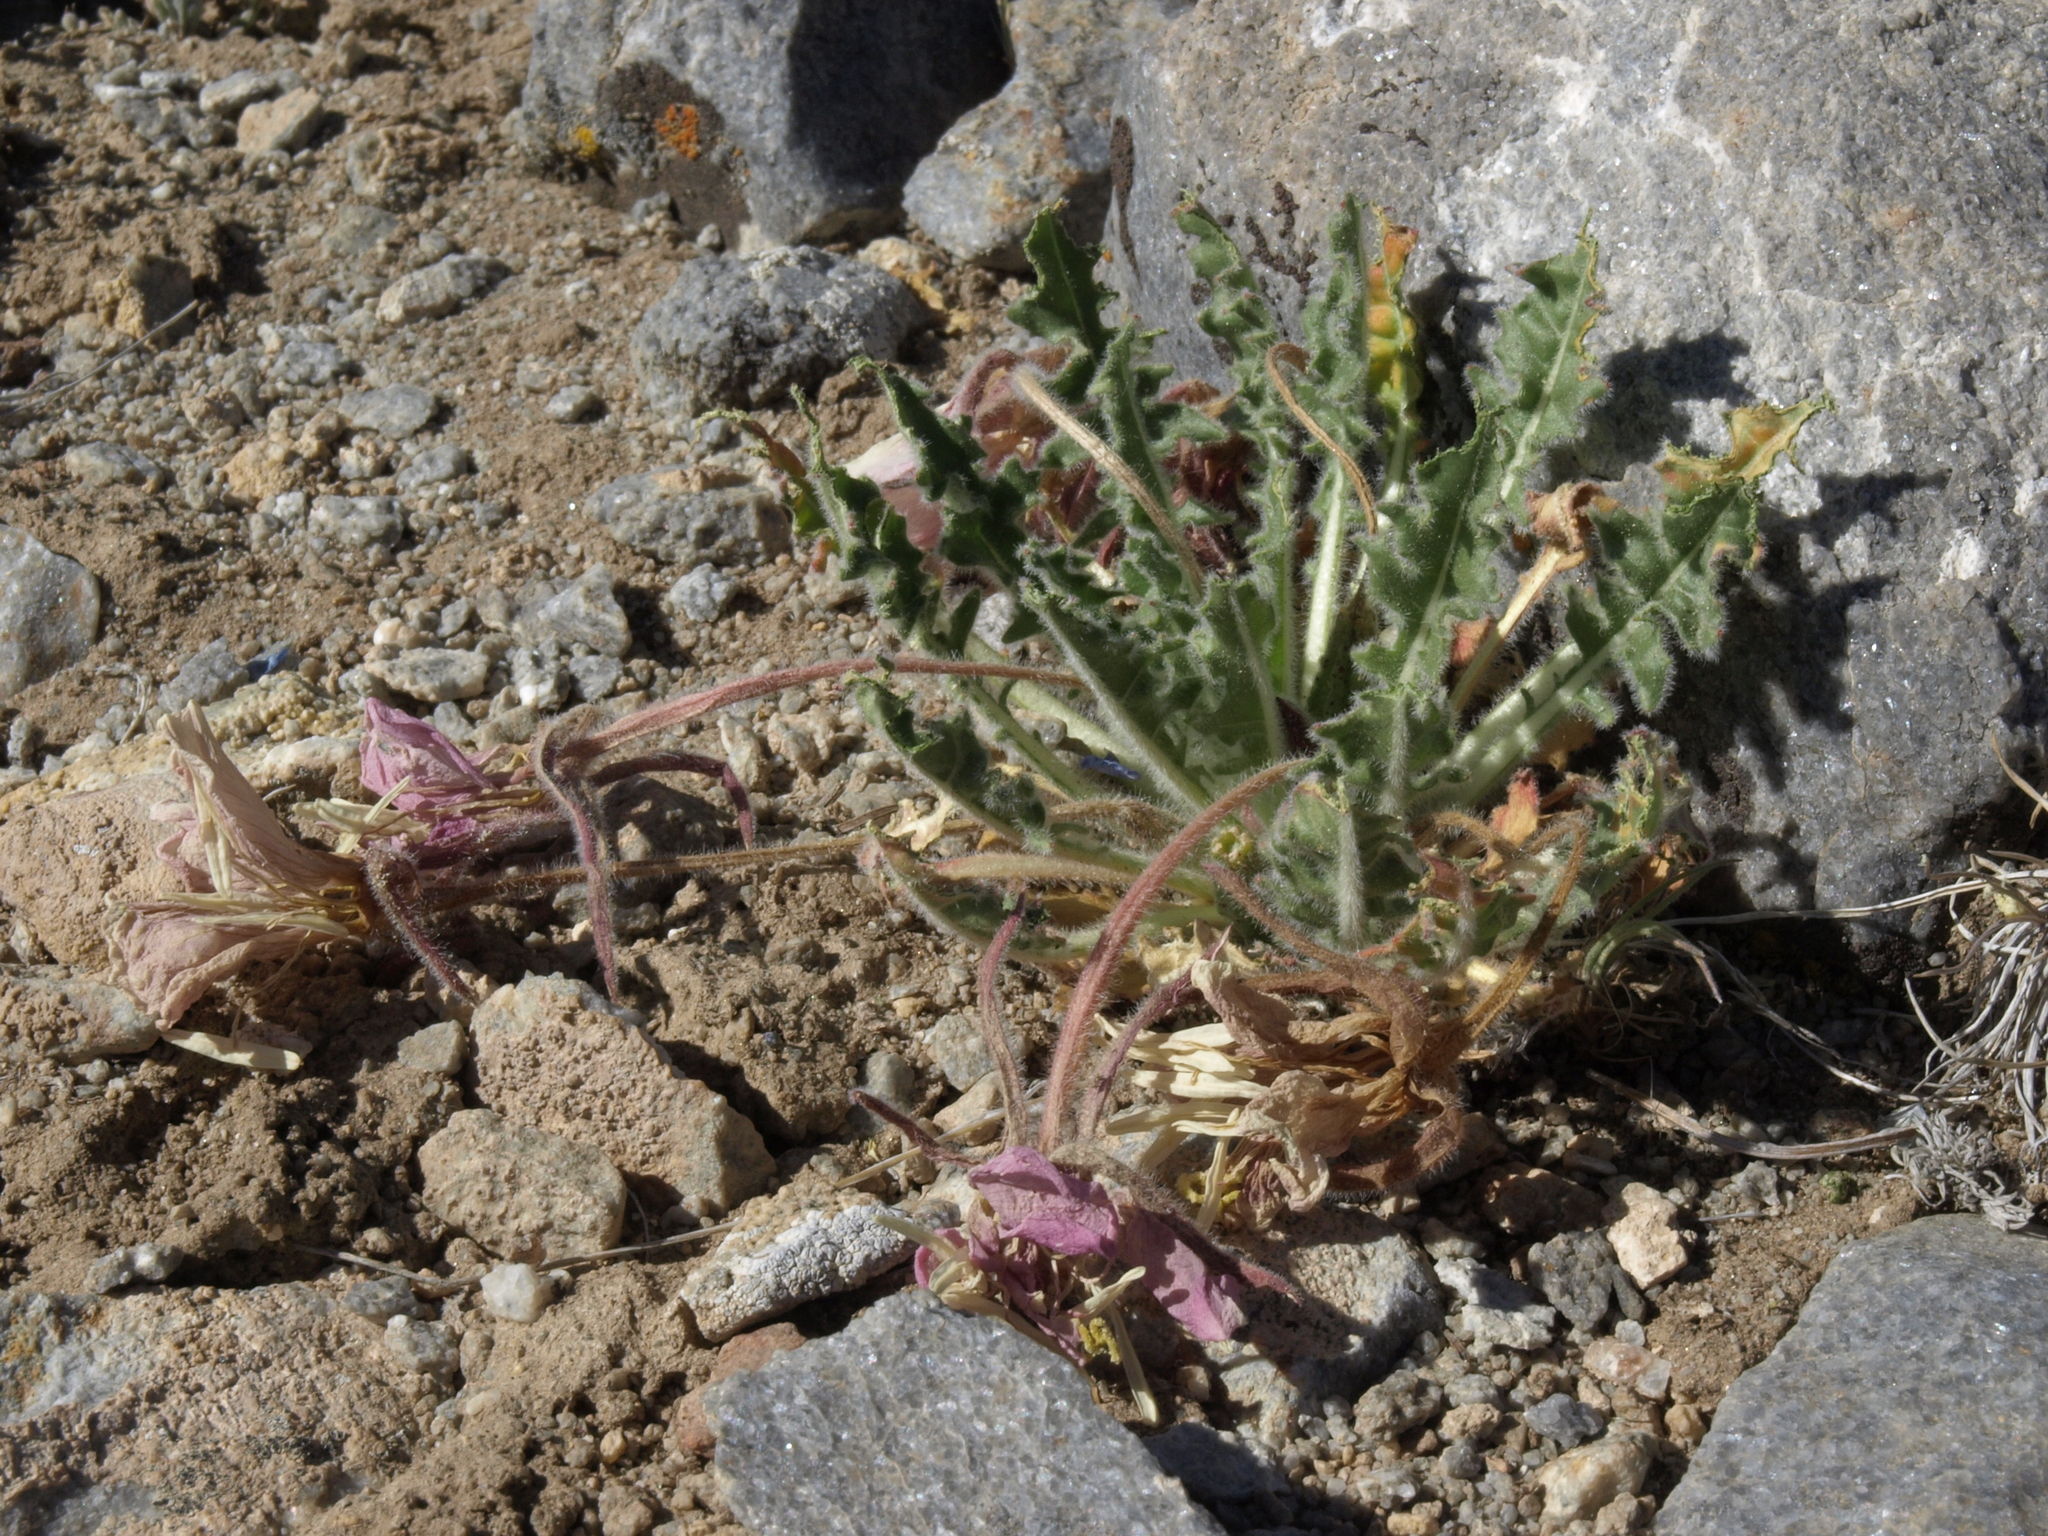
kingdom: Plantae
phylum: Tracheophyta
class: Magnoliopsida
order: Myrtales
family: Onagraceae
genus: Oenothera
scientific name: Oenothera cespitosa
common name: Tufted evening-primrose
